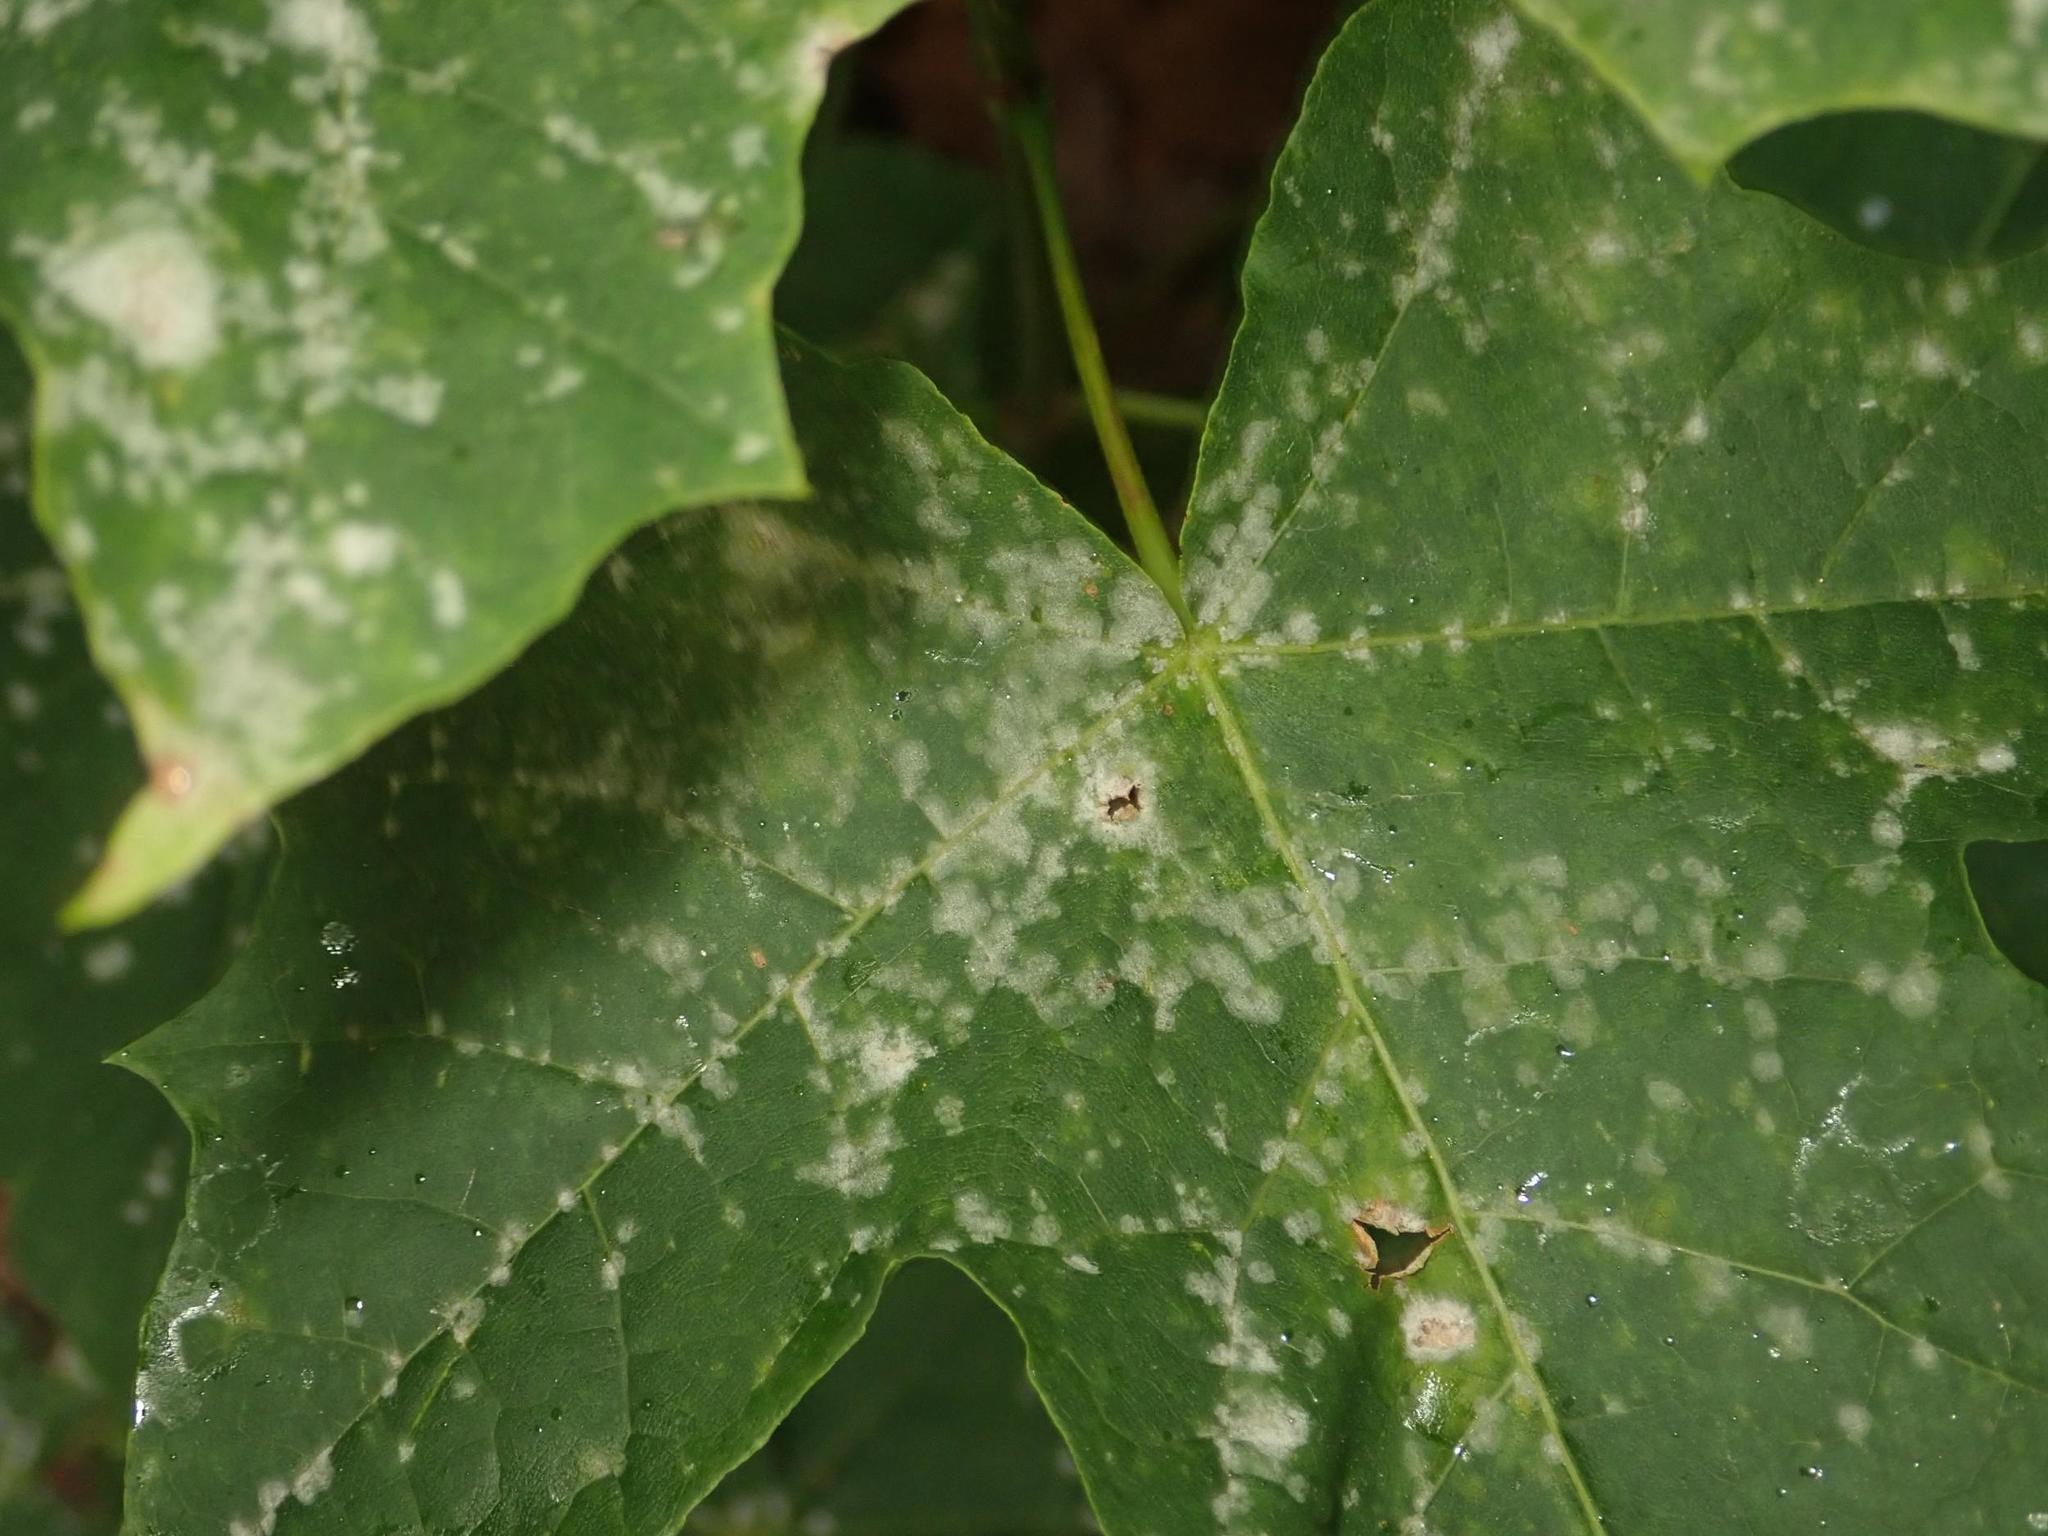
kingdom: Fungi
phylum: Ascomycota
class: Leotiomycetes
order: Helotiales
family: Erysiphaceae
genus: Sawadaea
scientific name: Sawadaea tulasnei
